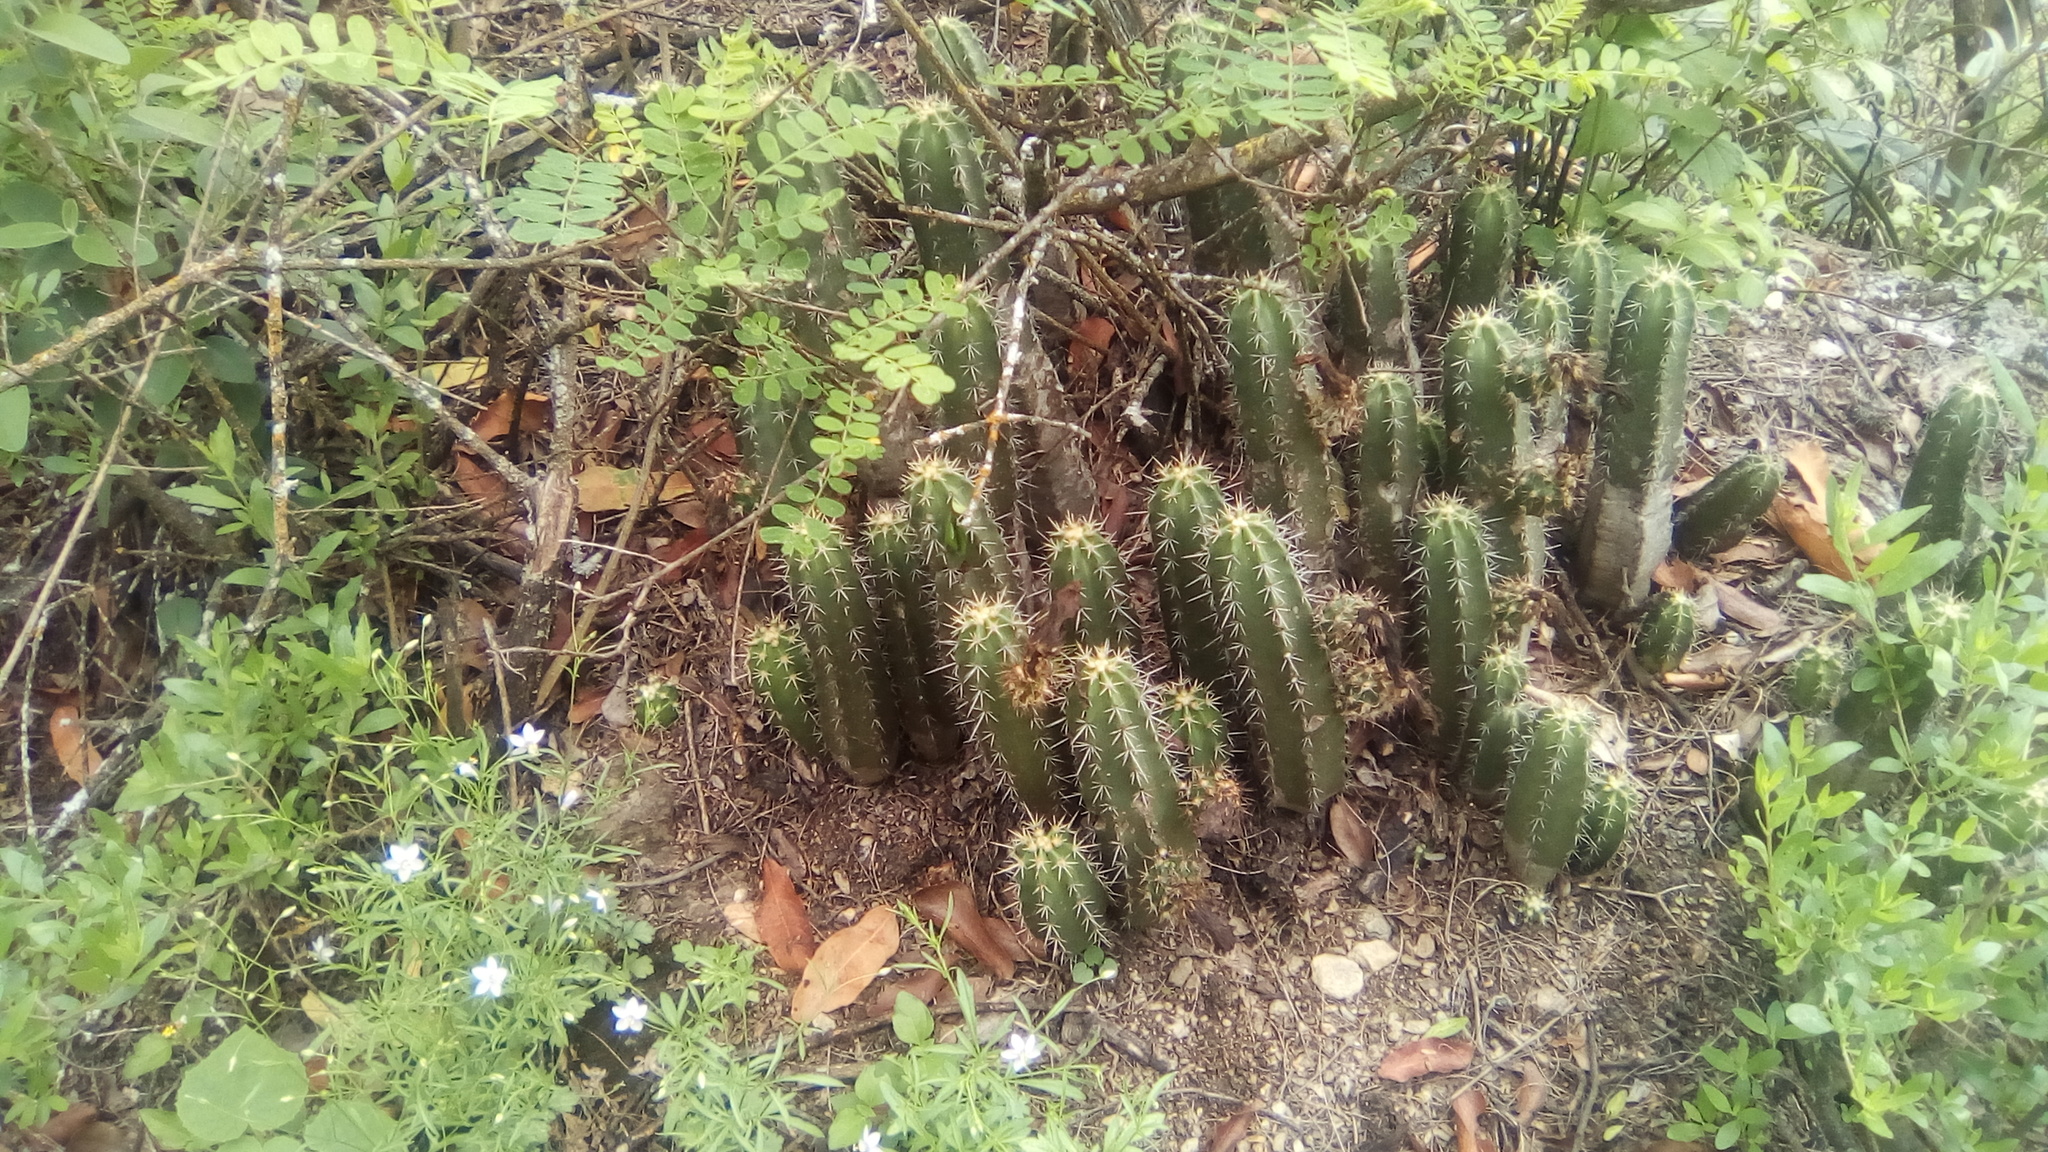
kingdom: Plantae
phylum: Tracheophyta
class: Magnoliopsida
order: Caryophyllales
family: Cactaceae
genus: Echinocereus
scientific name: Echinocereus pentalophus
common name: Ladyfinger cactus
